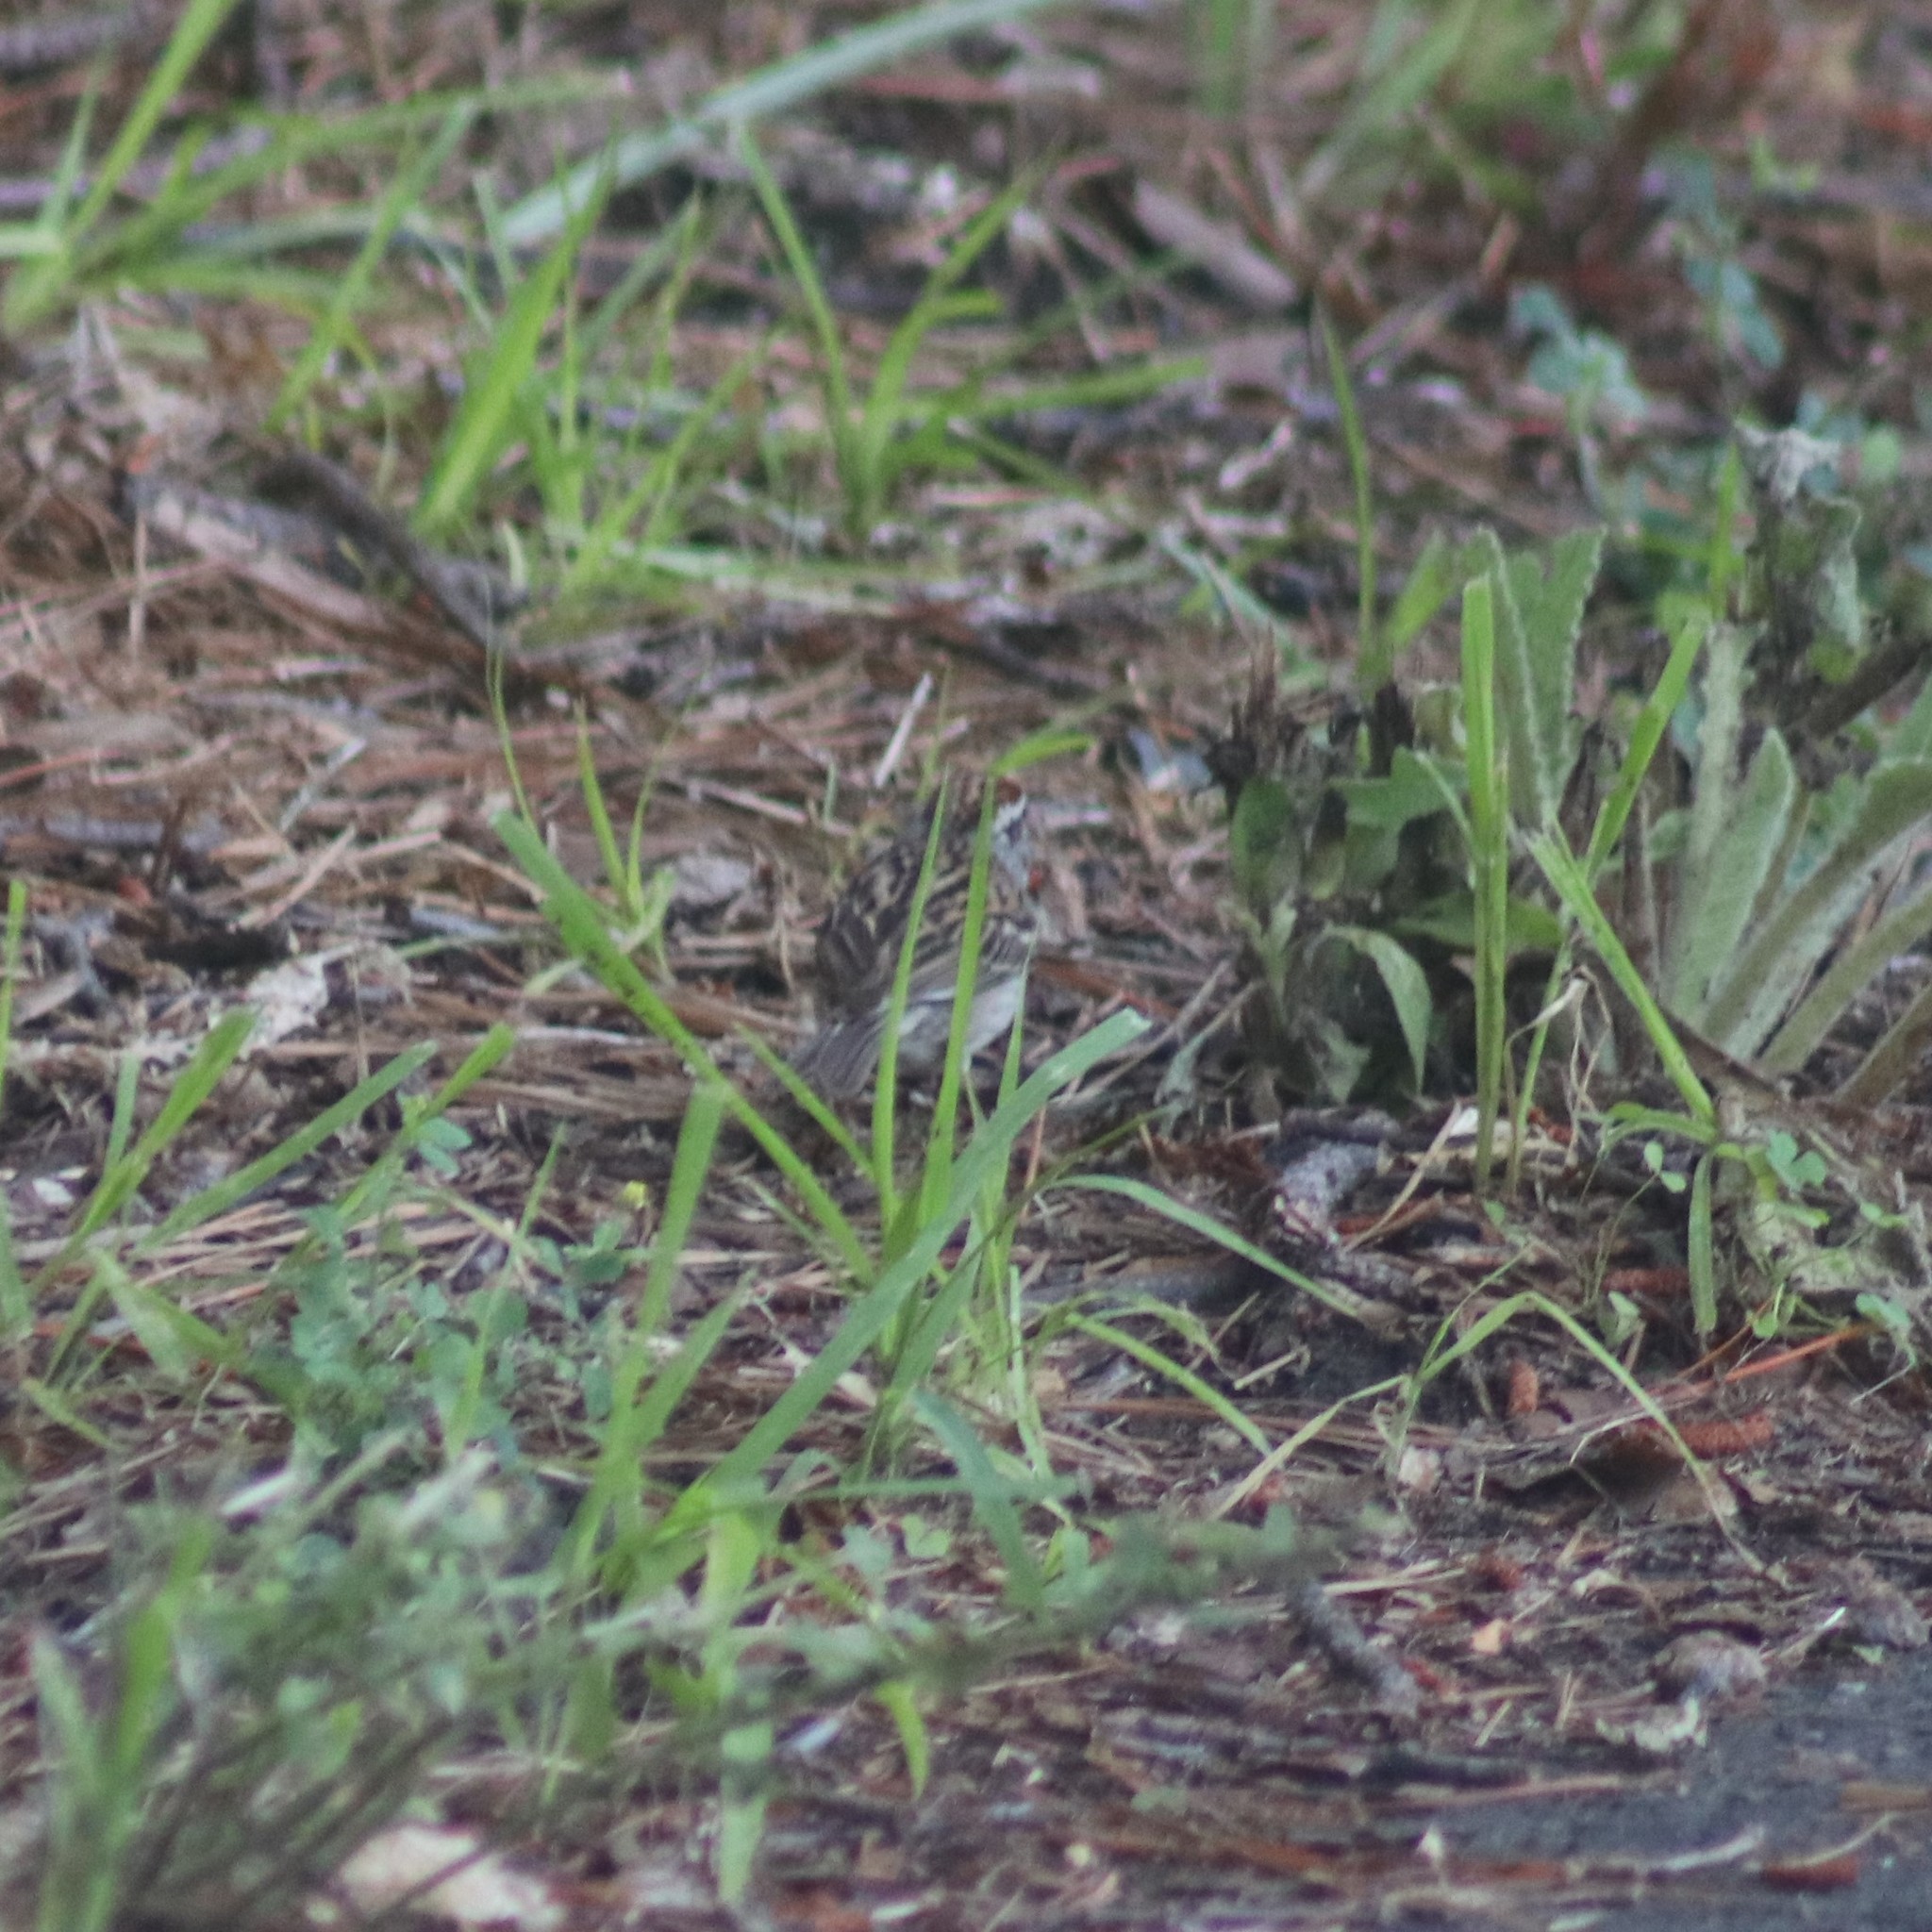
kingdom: Animalia
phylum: Chordata
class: Aves
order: Passeriformes
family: Passerellidae
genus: Spizella
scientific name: Spizella passerina
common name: Chipping sparrow
